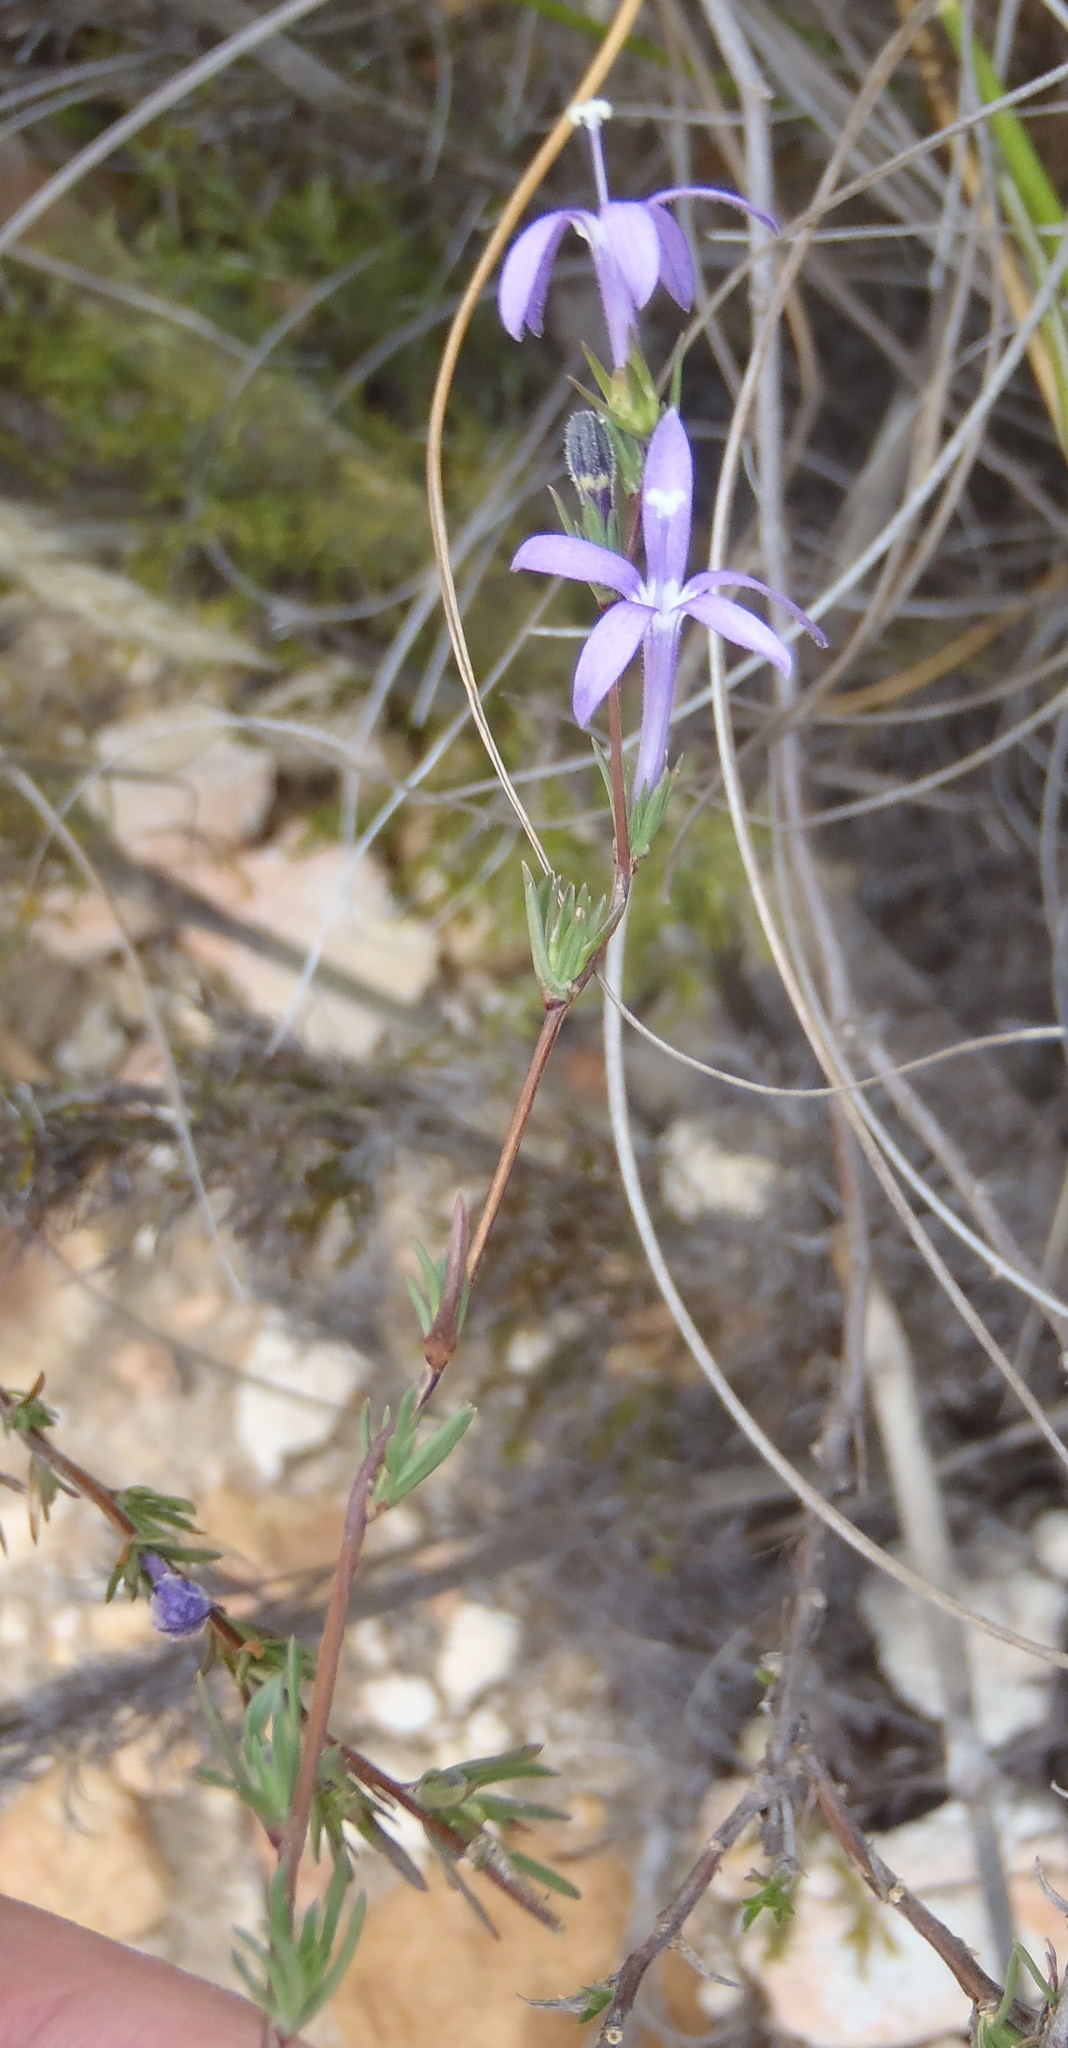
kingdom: Plantae
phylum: Tracheophyta
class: Magnoliopsida
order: Asterales
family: Campanulaceae
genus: Theilera
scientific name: Theilera guthriei
